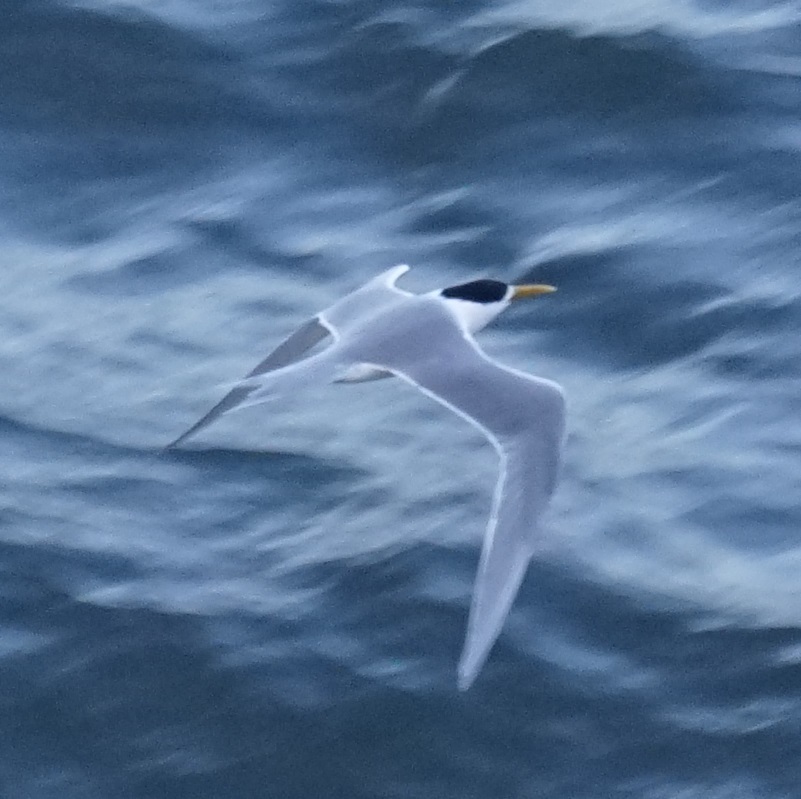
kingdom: Animalia
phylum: Chordata
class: Aves
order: Charadriiformes
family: Laridae
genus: Thalasseus
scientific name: Thalasseus bergii
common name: Greater crested tern
